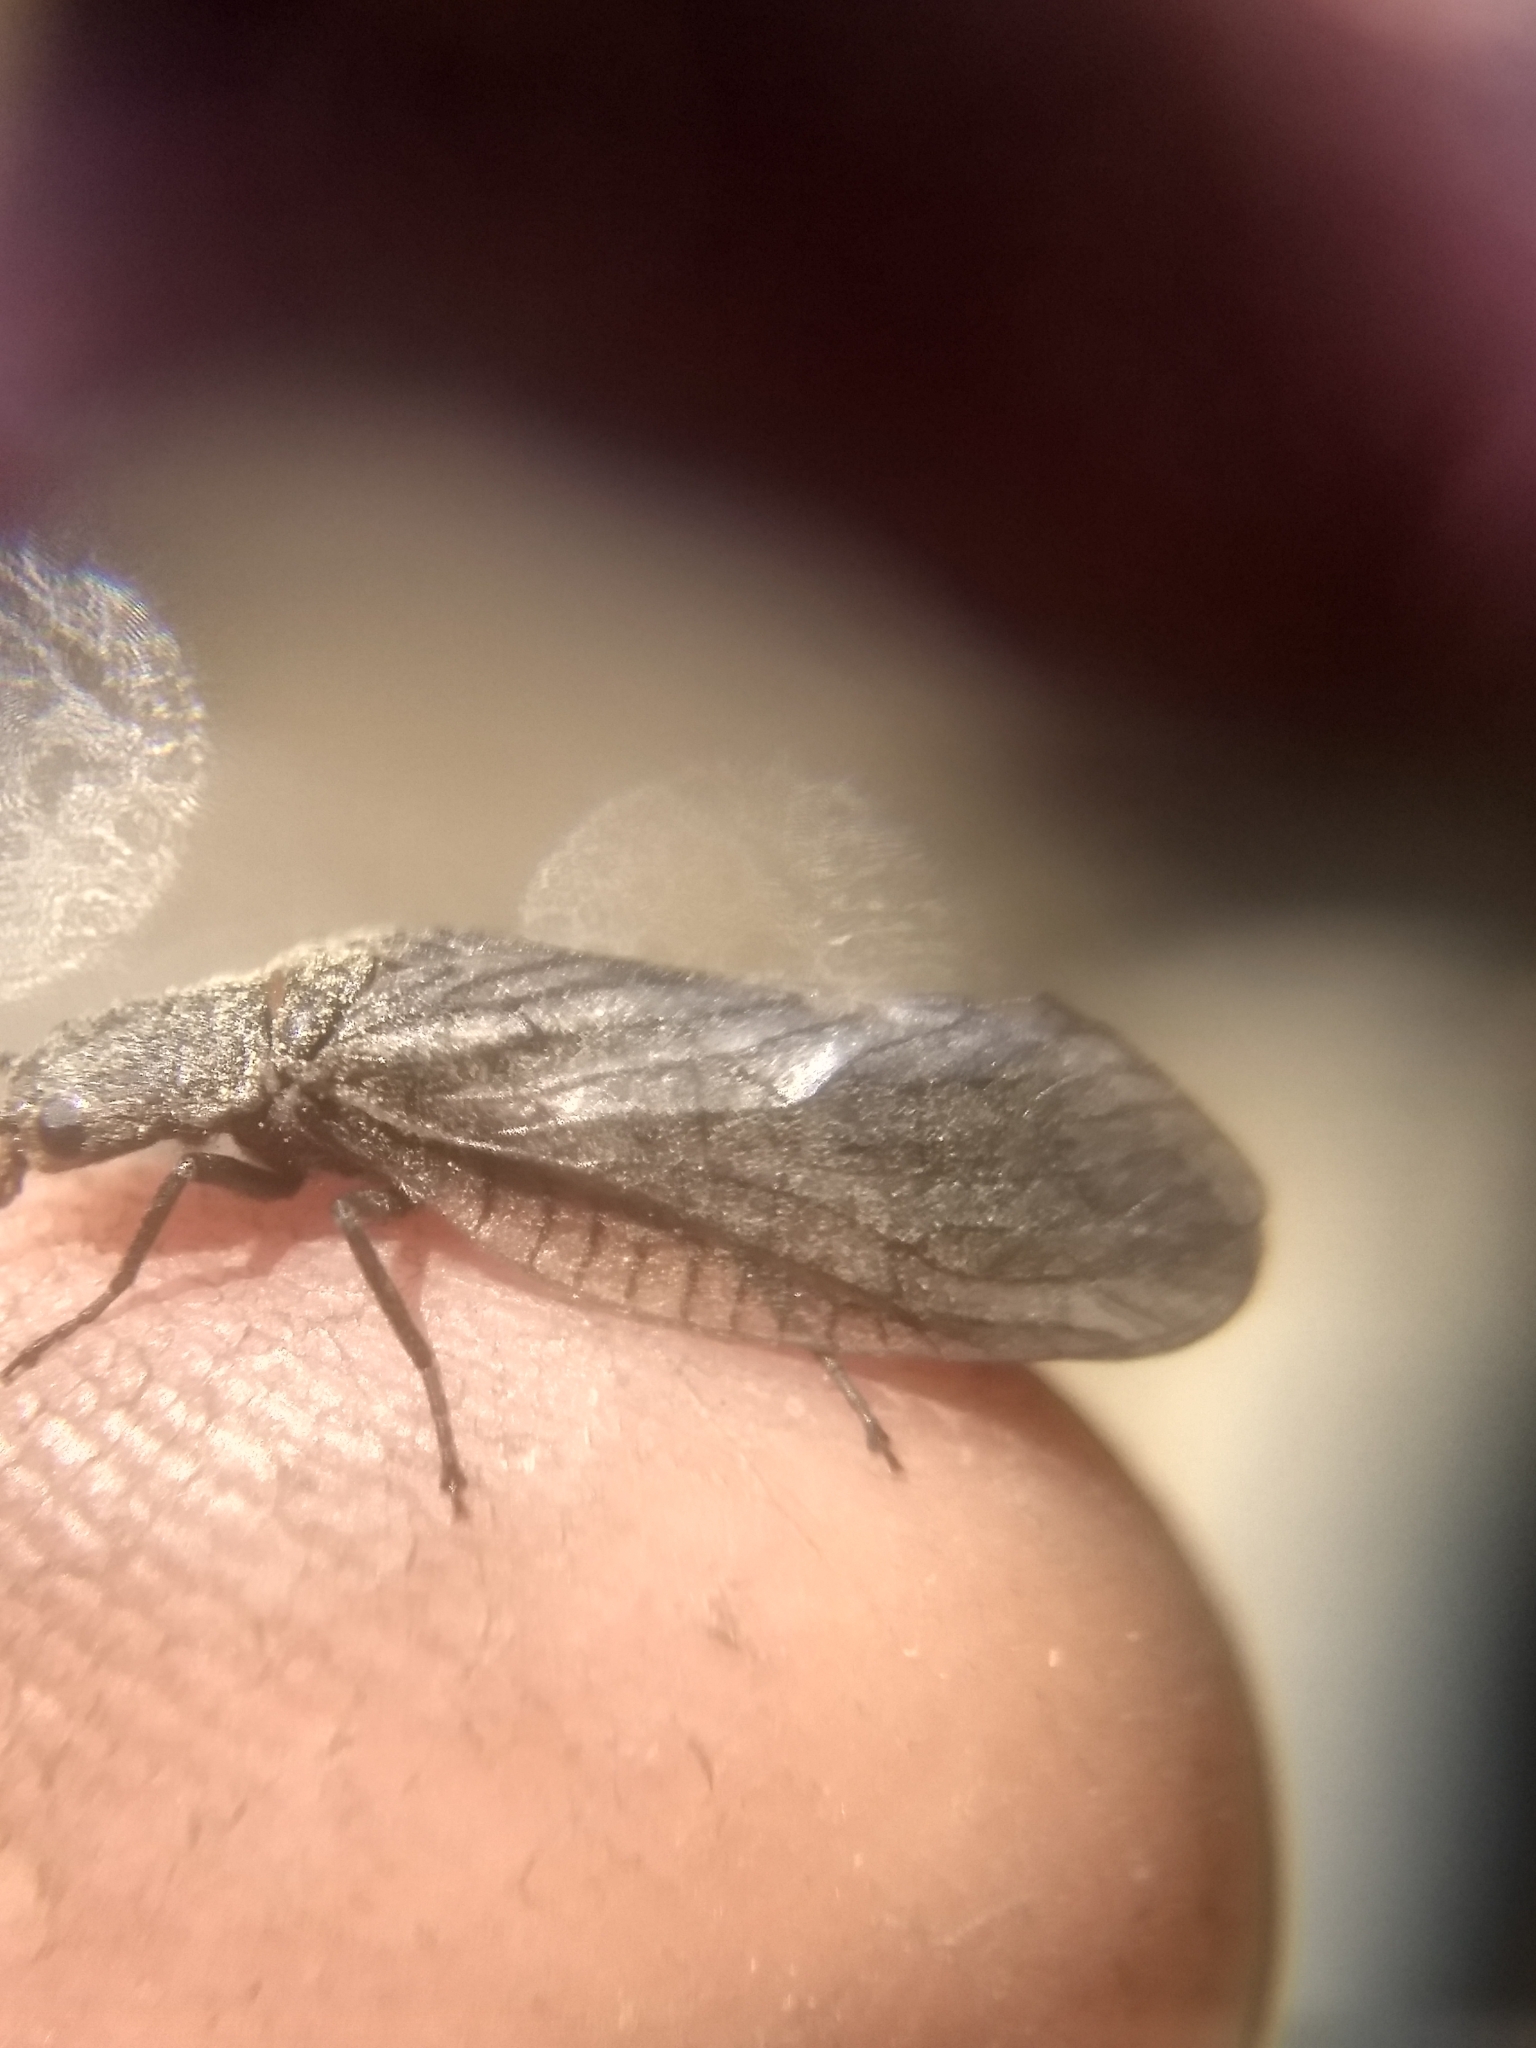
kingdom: Animalia
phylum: Arthropoda
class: Insecta
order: Megaloptera
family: Sialidae
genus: Sialis
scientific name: Sialis
